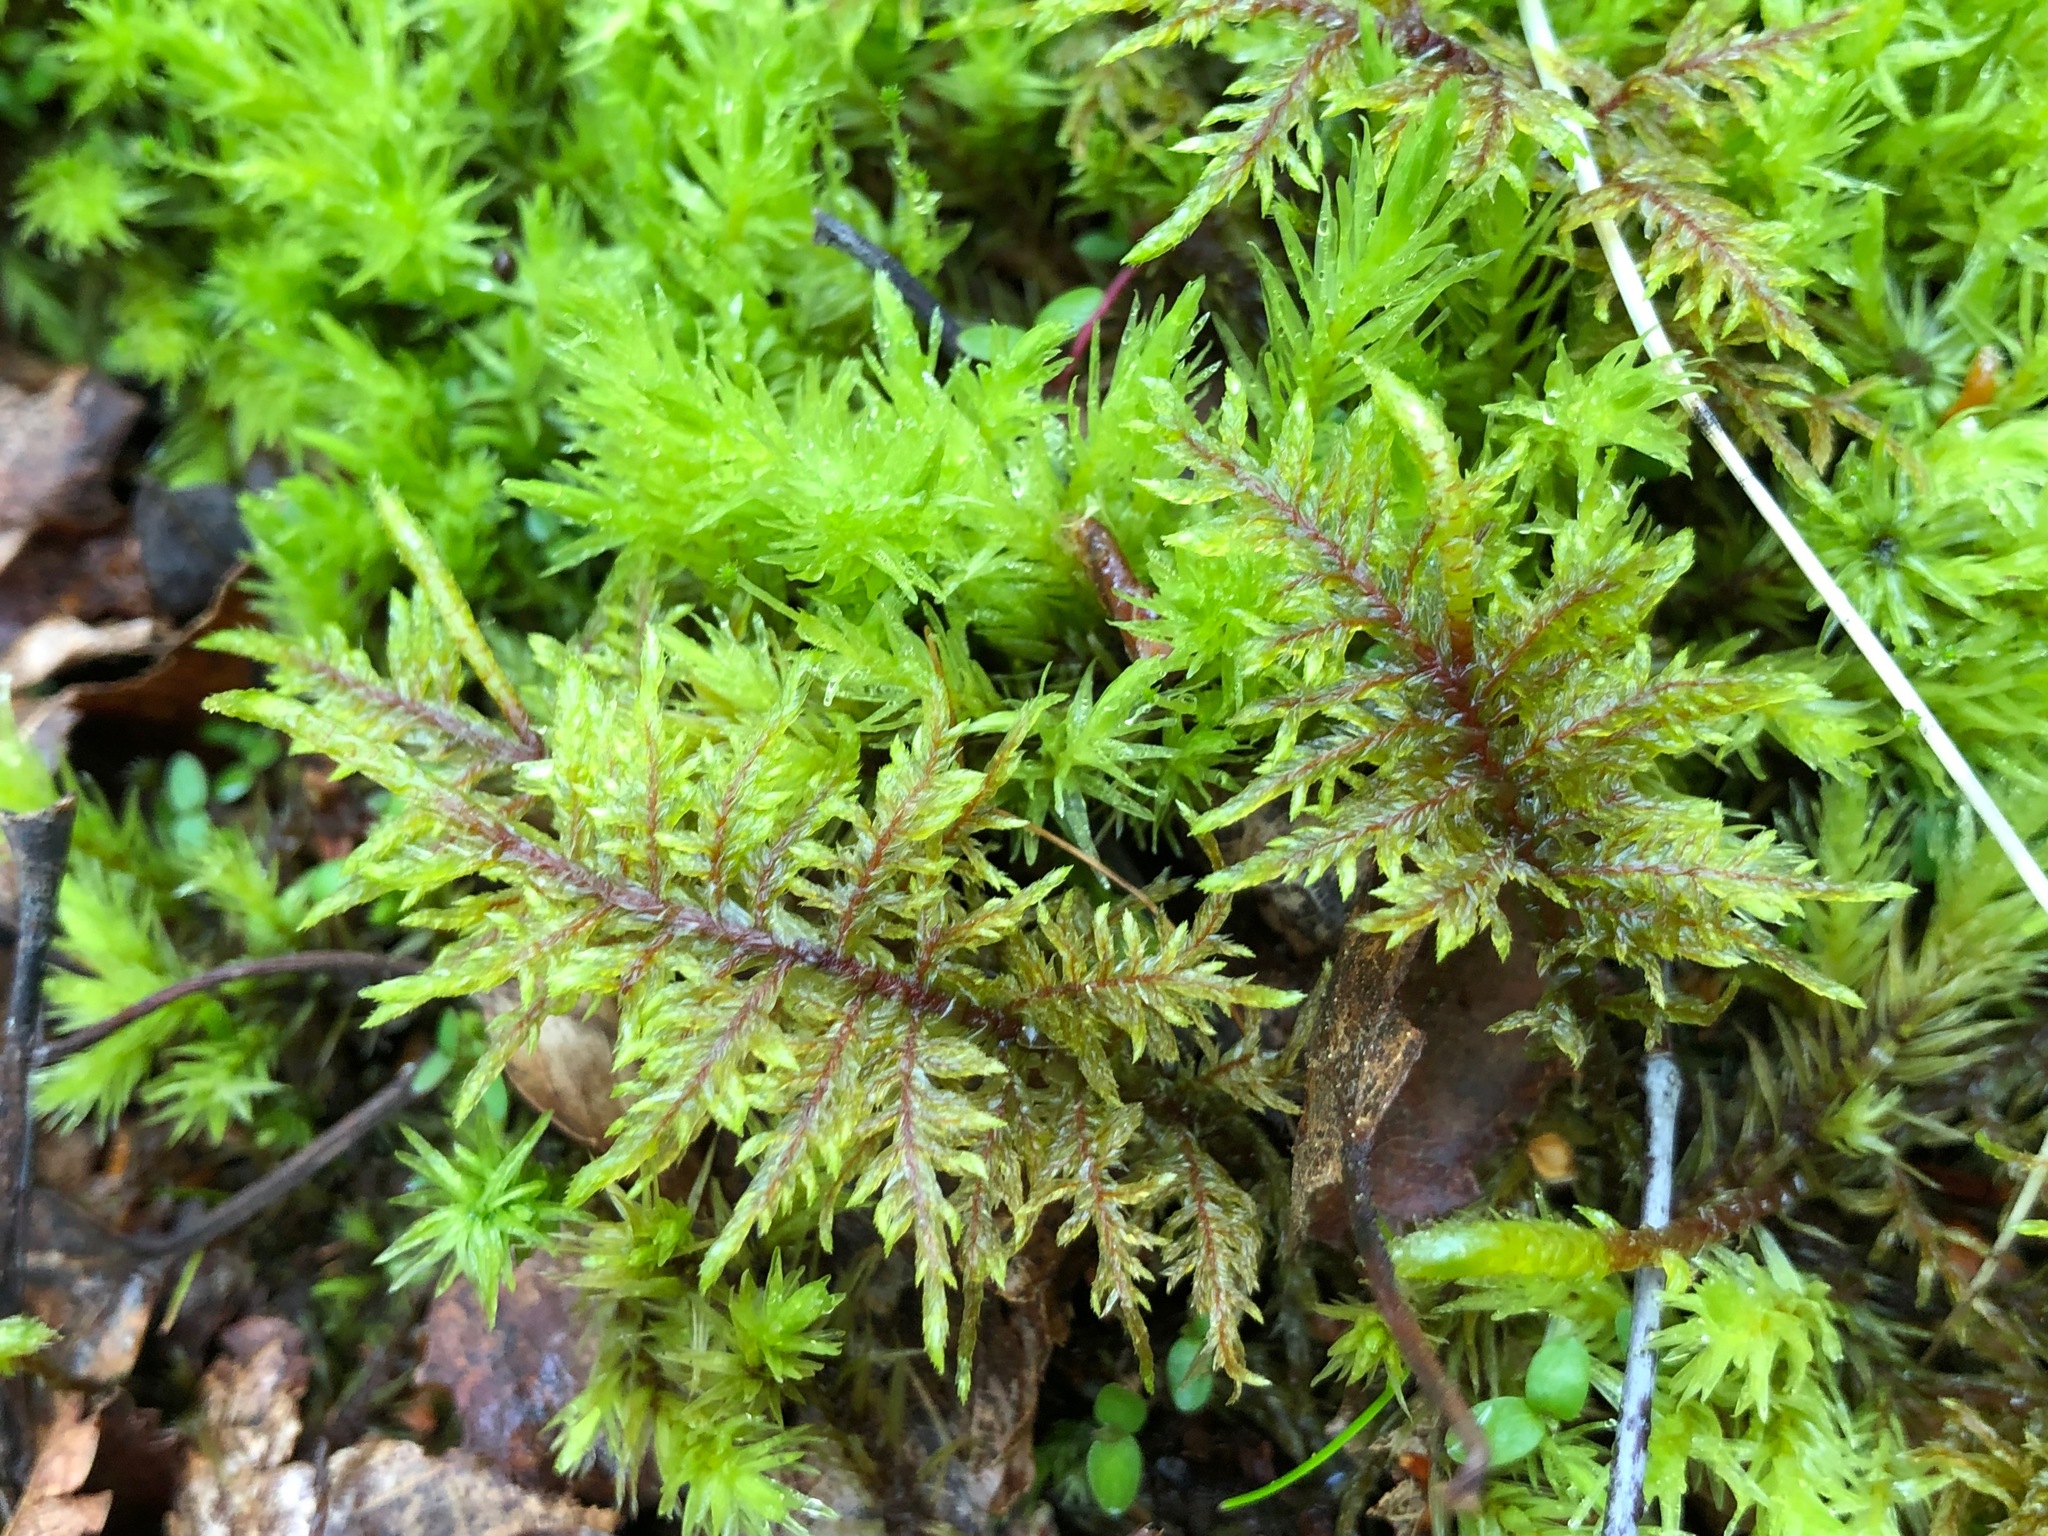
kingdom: Plantae
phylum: Bryophyta
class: Bryopsida
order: Hypnales
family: Hylocomiaceae
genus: Hylocomium
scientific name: Hylocomium splendens
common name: Stairstep moss
